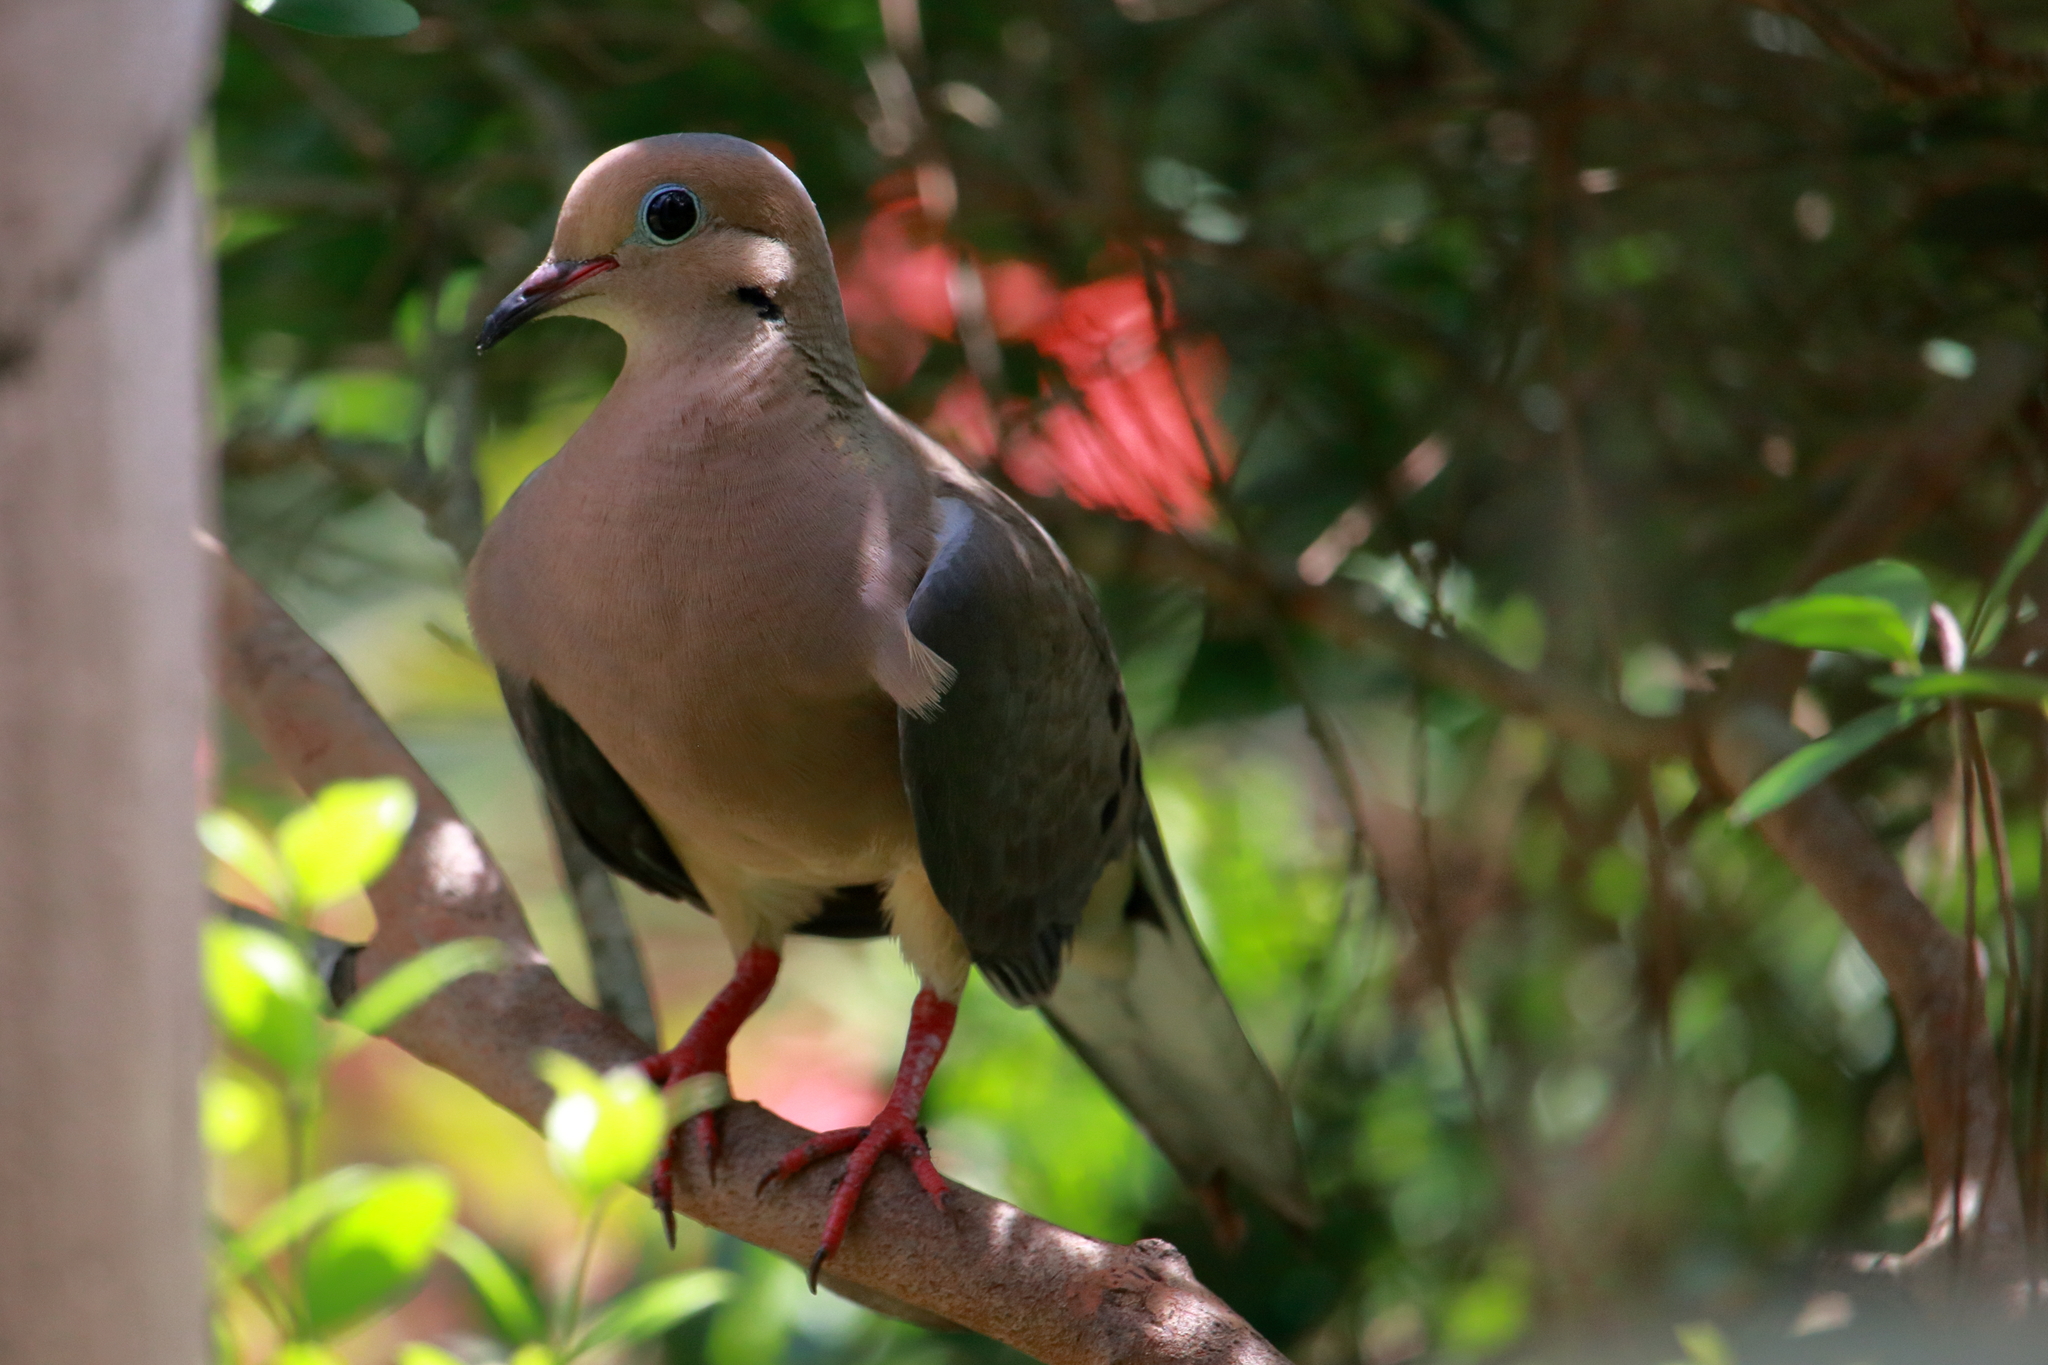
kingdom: Animalia
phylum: Chordata
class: Aves
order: Columbiformes
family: Columbidae
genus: Zenaida
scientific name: Zenaida macroura
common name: Mourning dove
